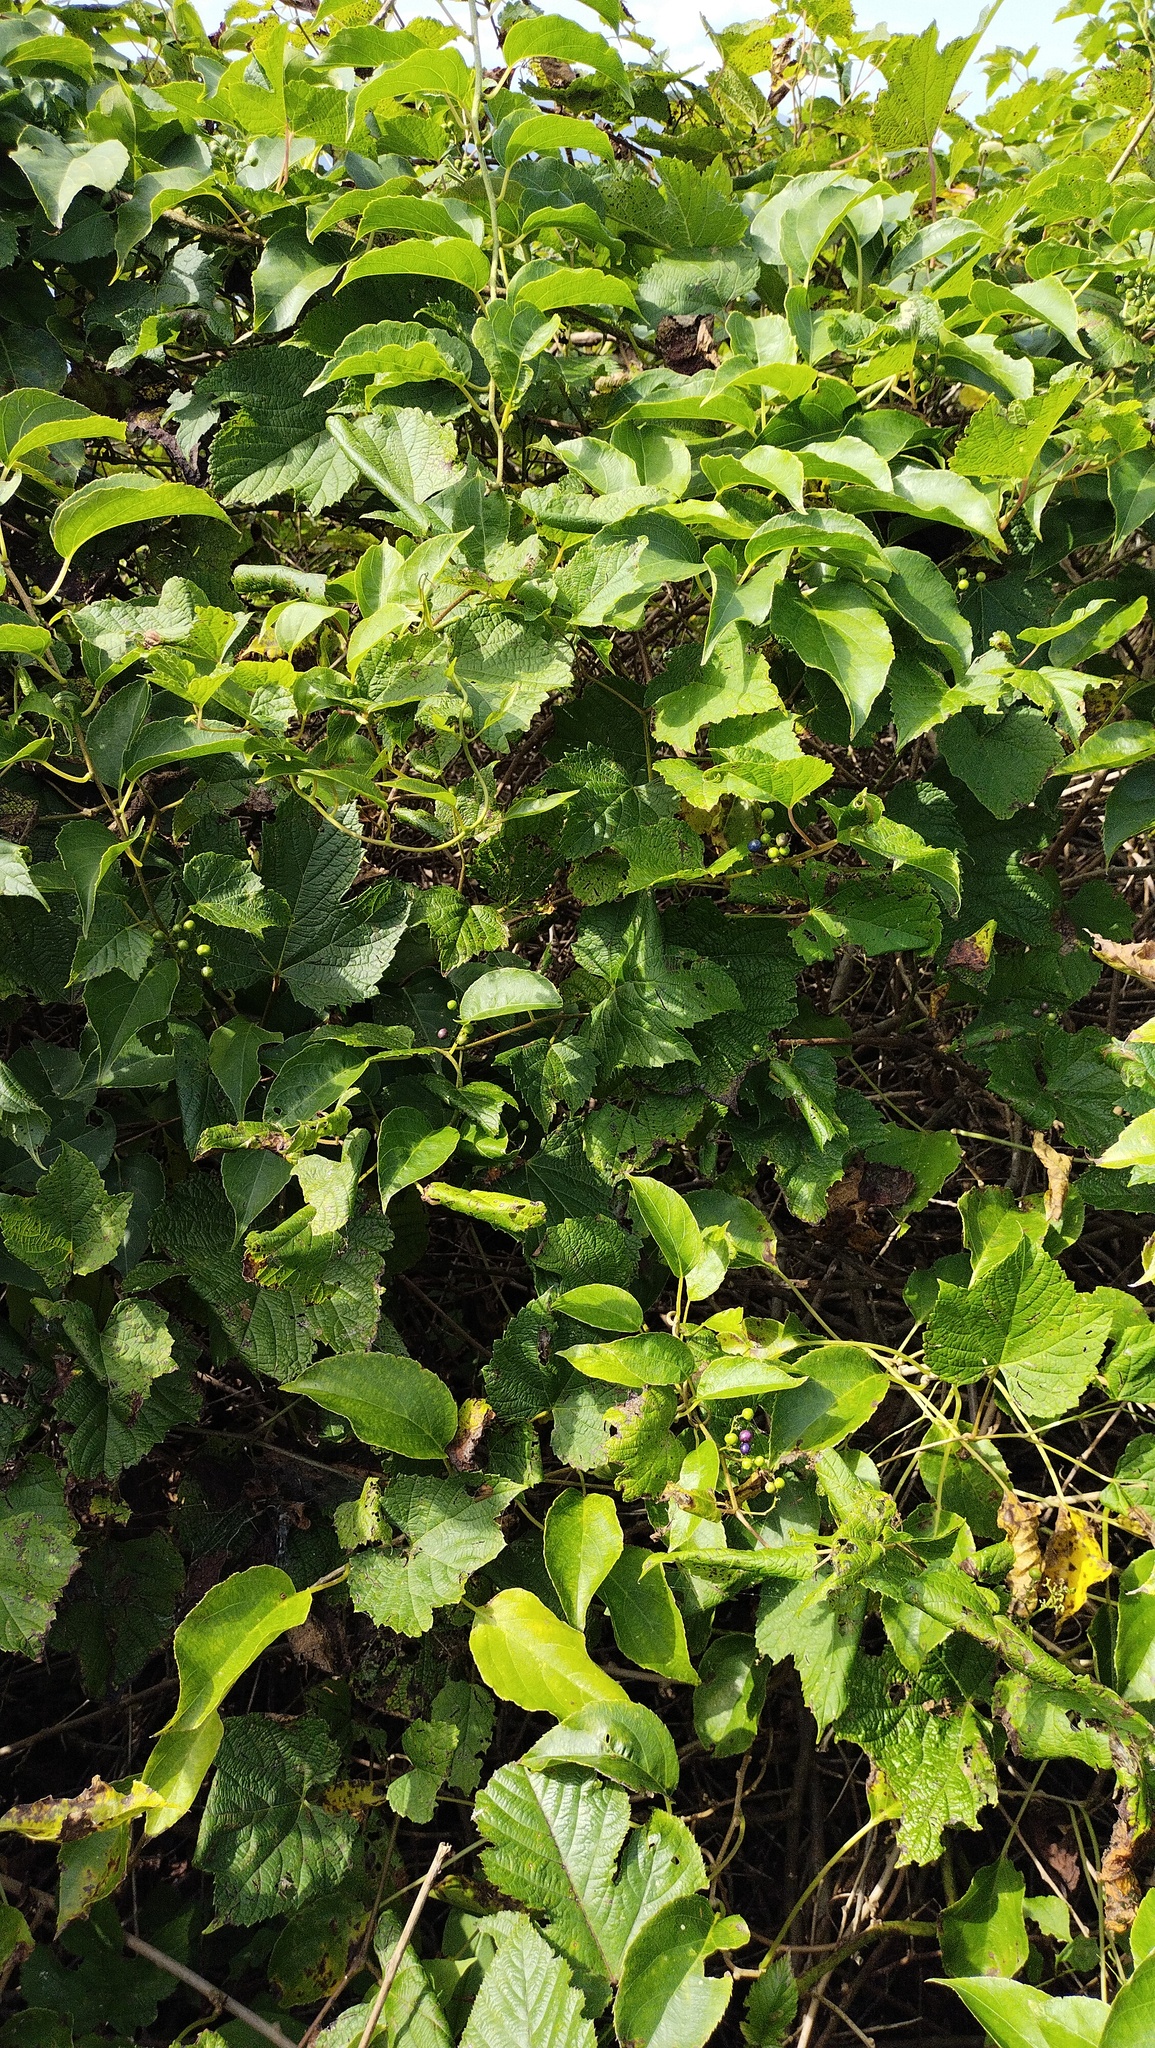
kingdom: Plantae
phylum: Tracheophyta
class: Magnoliopsida
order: Vitales
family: Vitaceae
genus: Ampelopsis
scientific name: Ampelopsis glandulosa
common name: Amur peppervine
